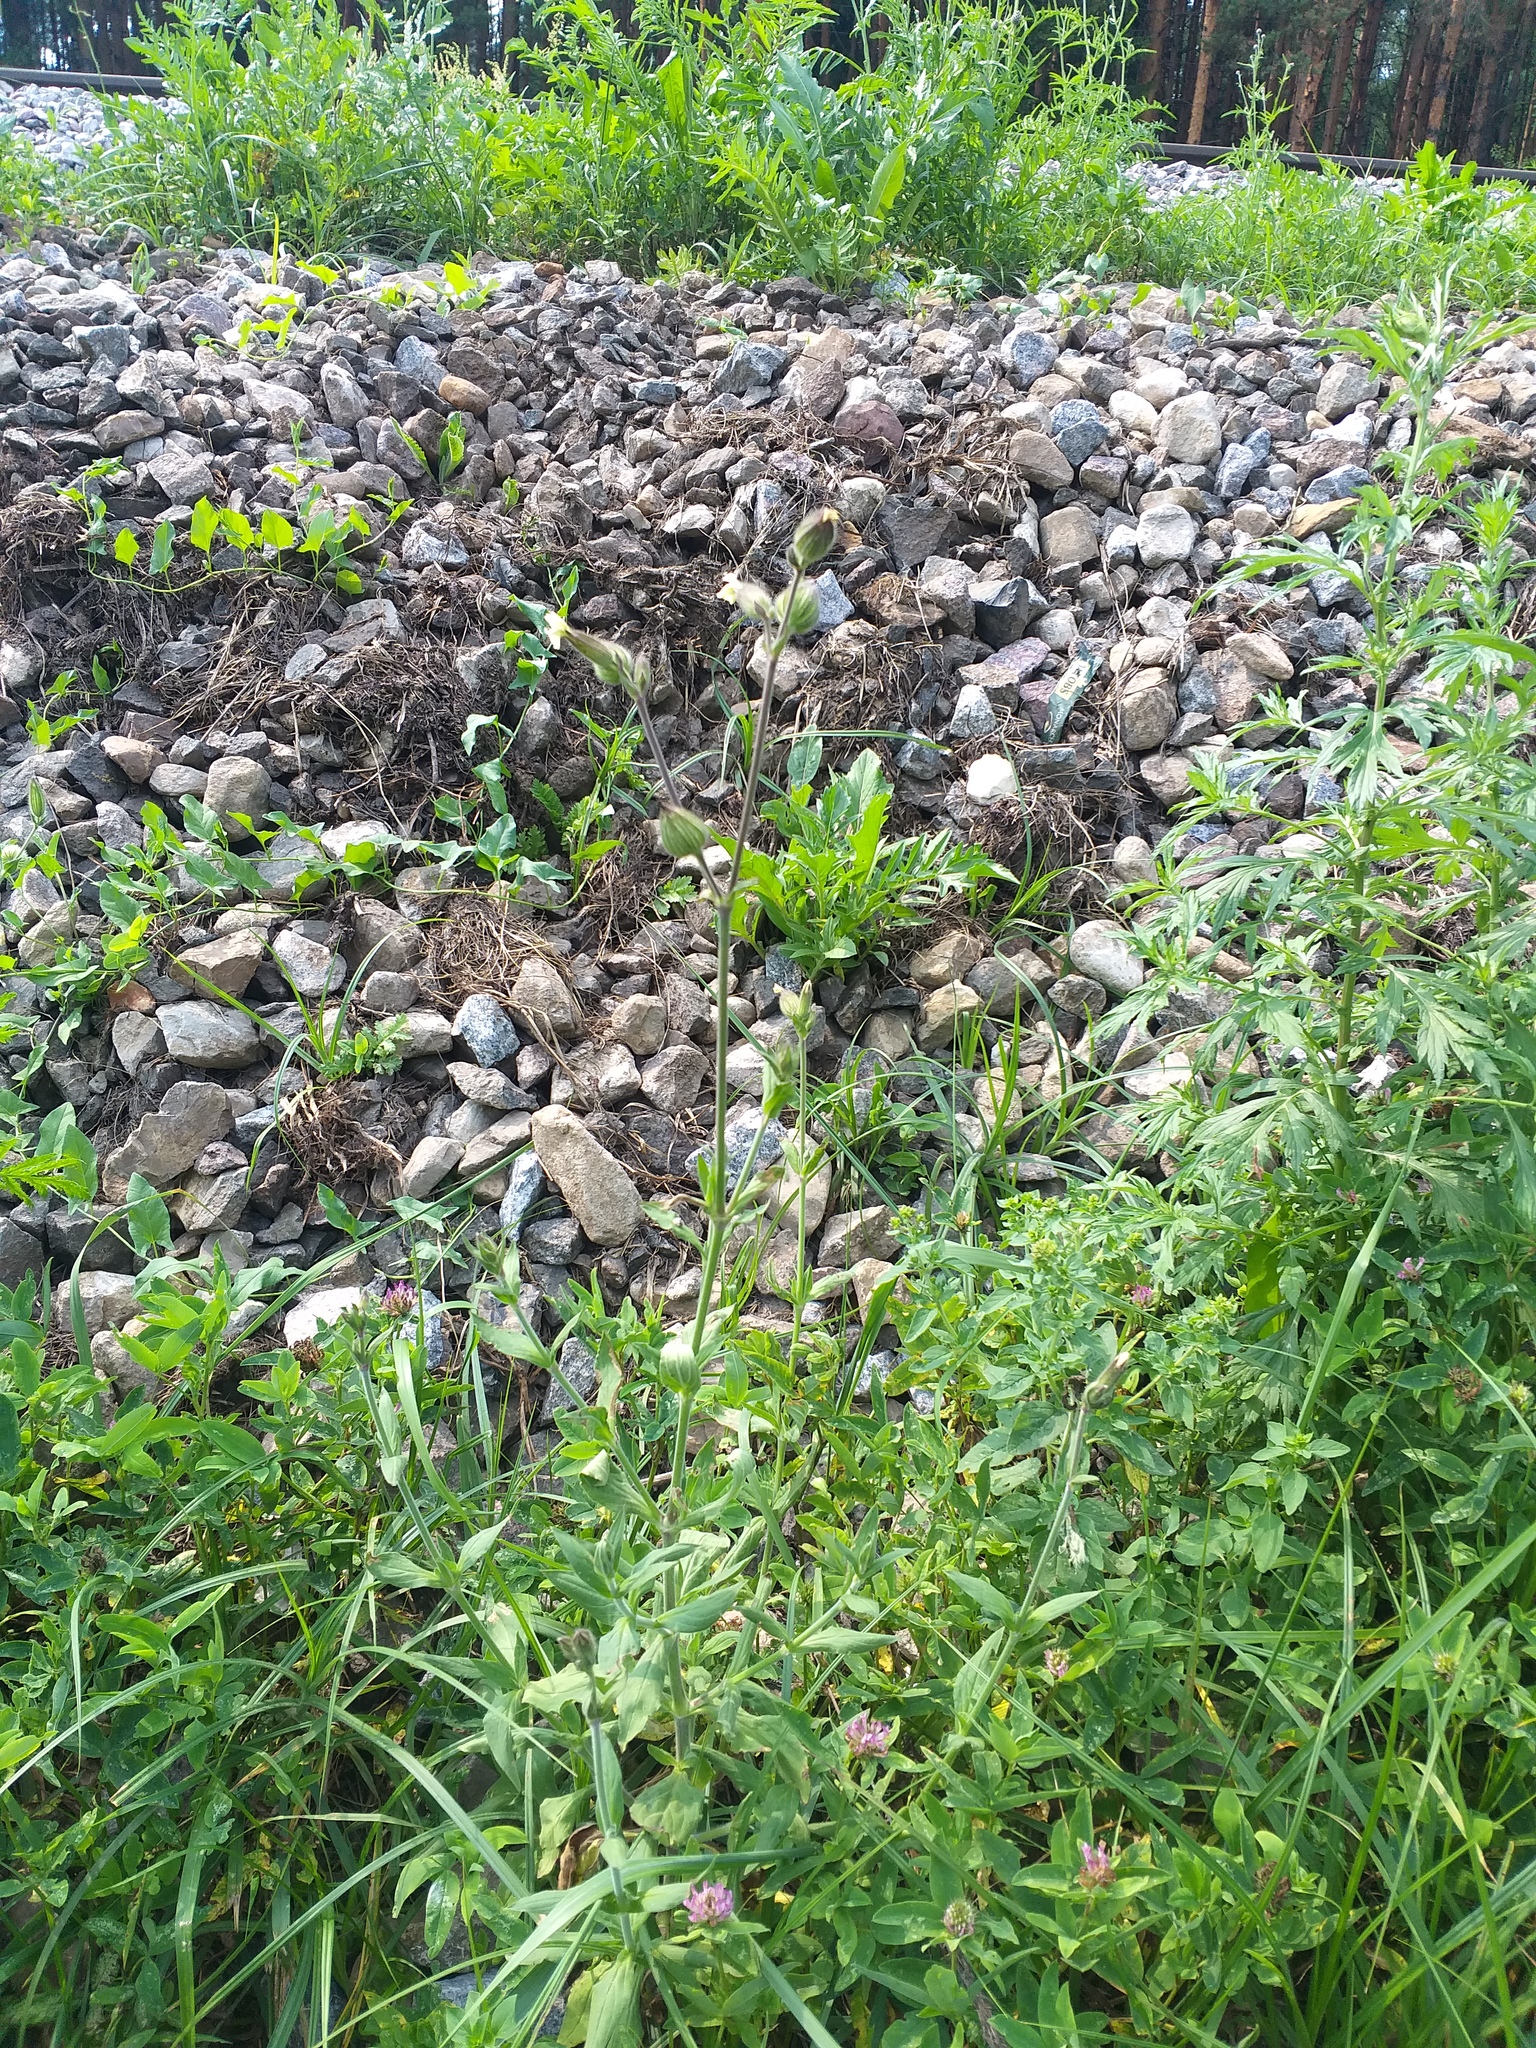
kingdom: Plantae
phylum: Tracheophyta
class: Magnoliopsida
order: Caryophyllales
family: Caryophyllaceae
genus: Silene
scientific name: Silene latifolia
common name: White campion
